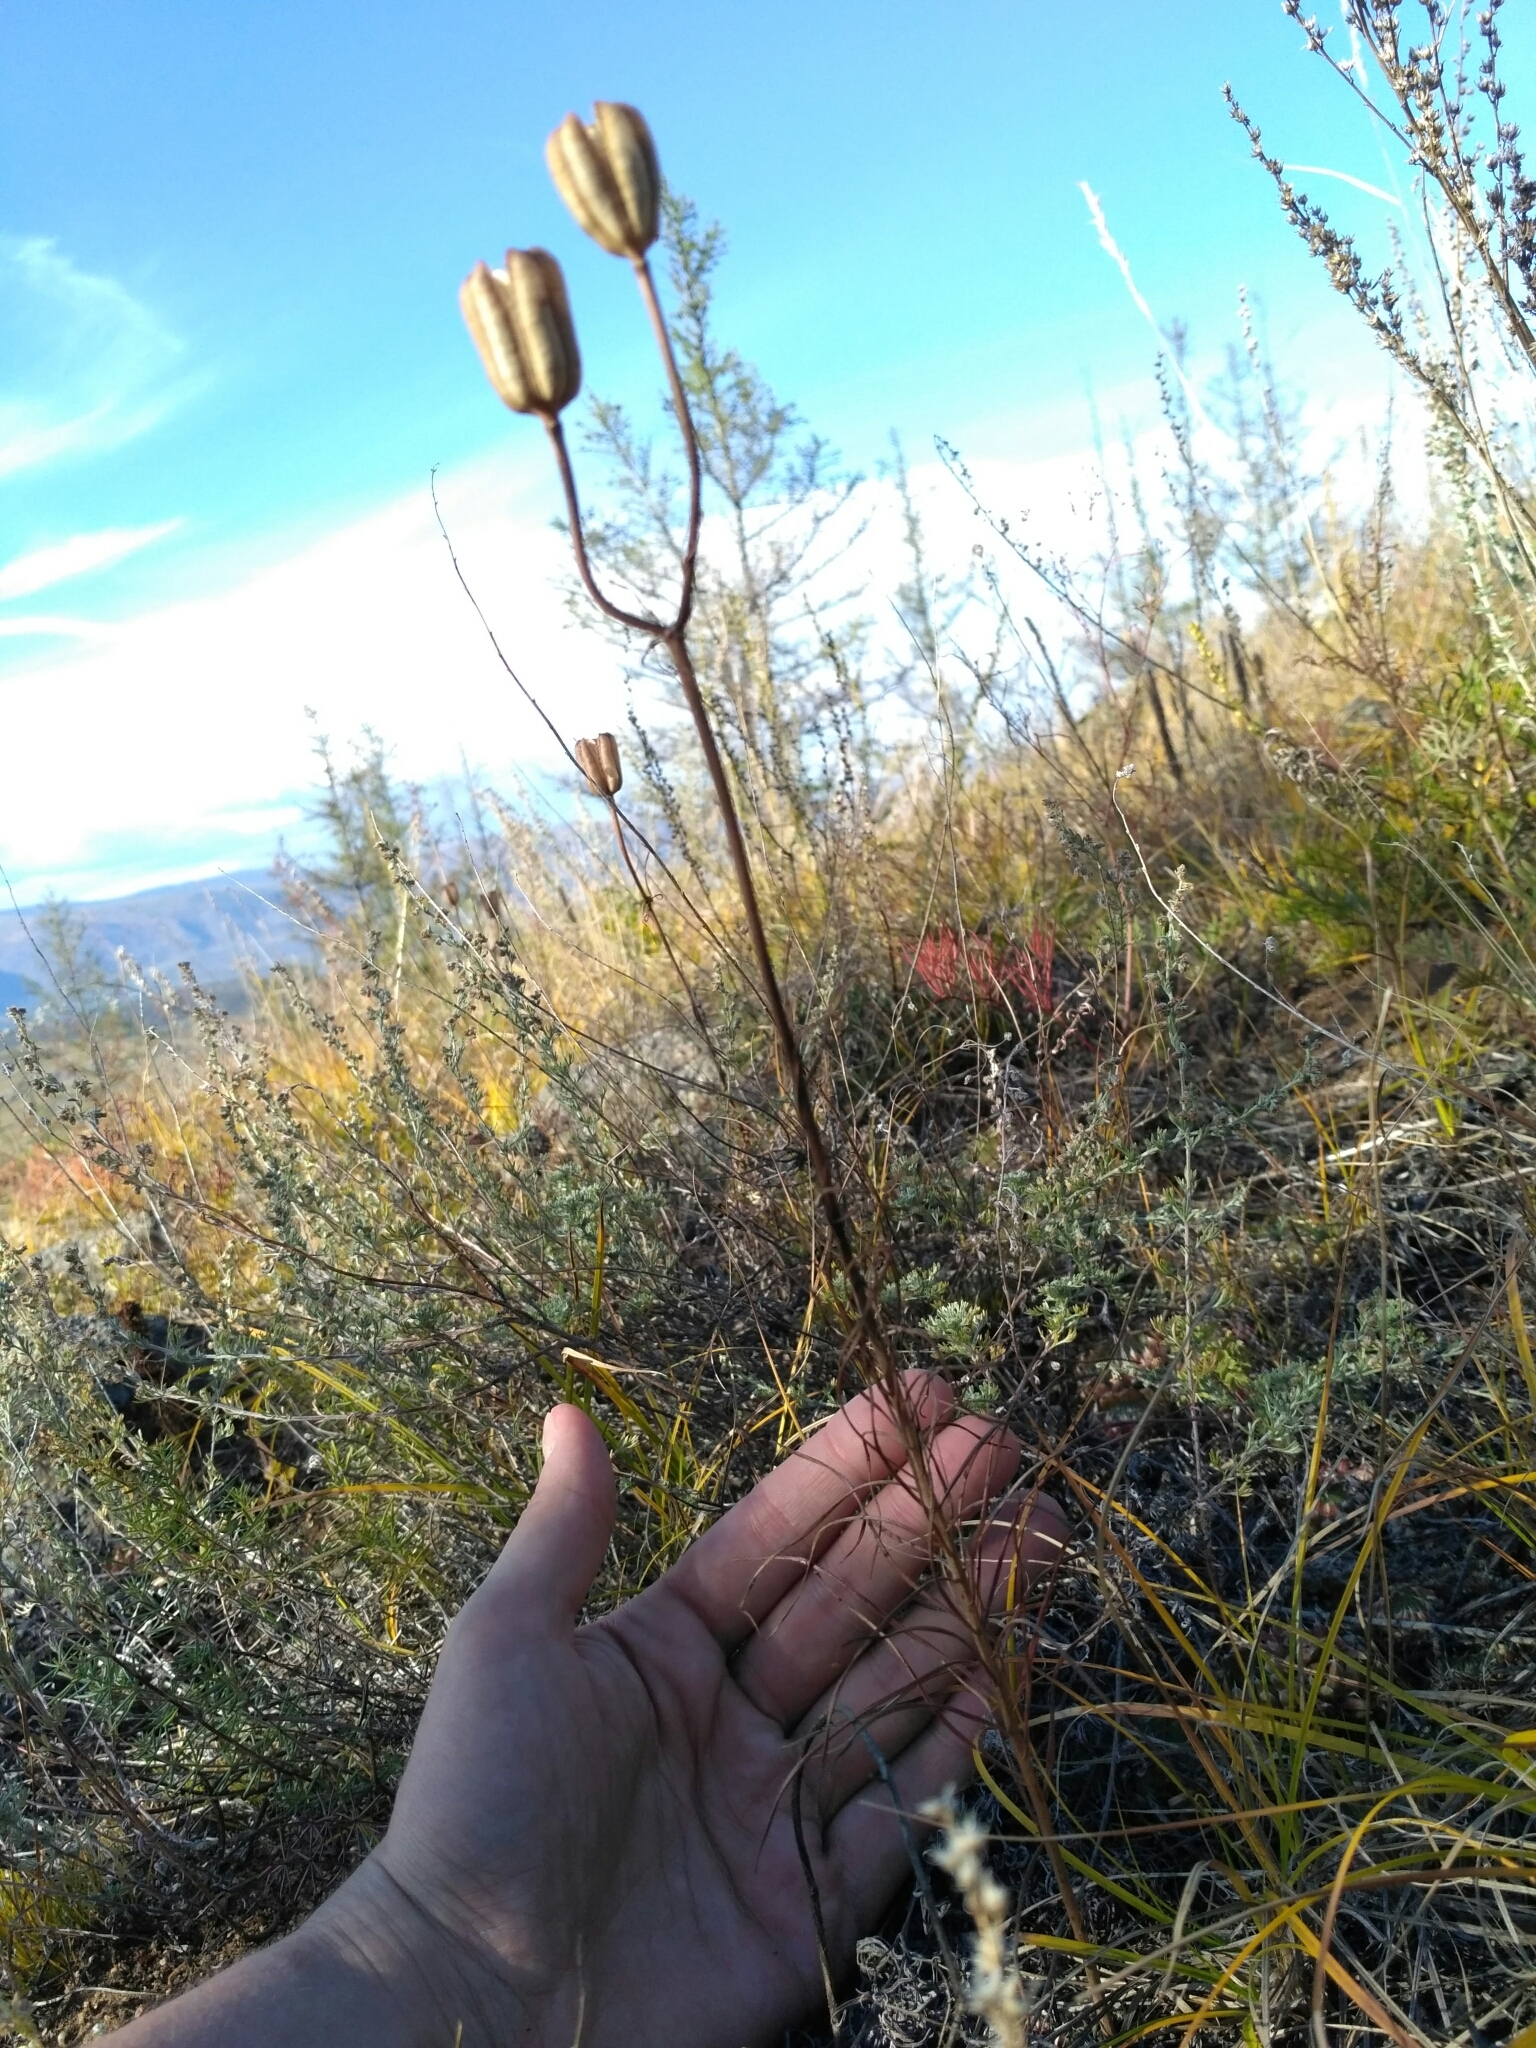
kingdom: Plantae
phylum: Tracheophyta
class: Liliopsida
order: Liliales
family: Liliaceae
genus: Lilium
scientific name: Lilium pumilum
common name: Coral lily
